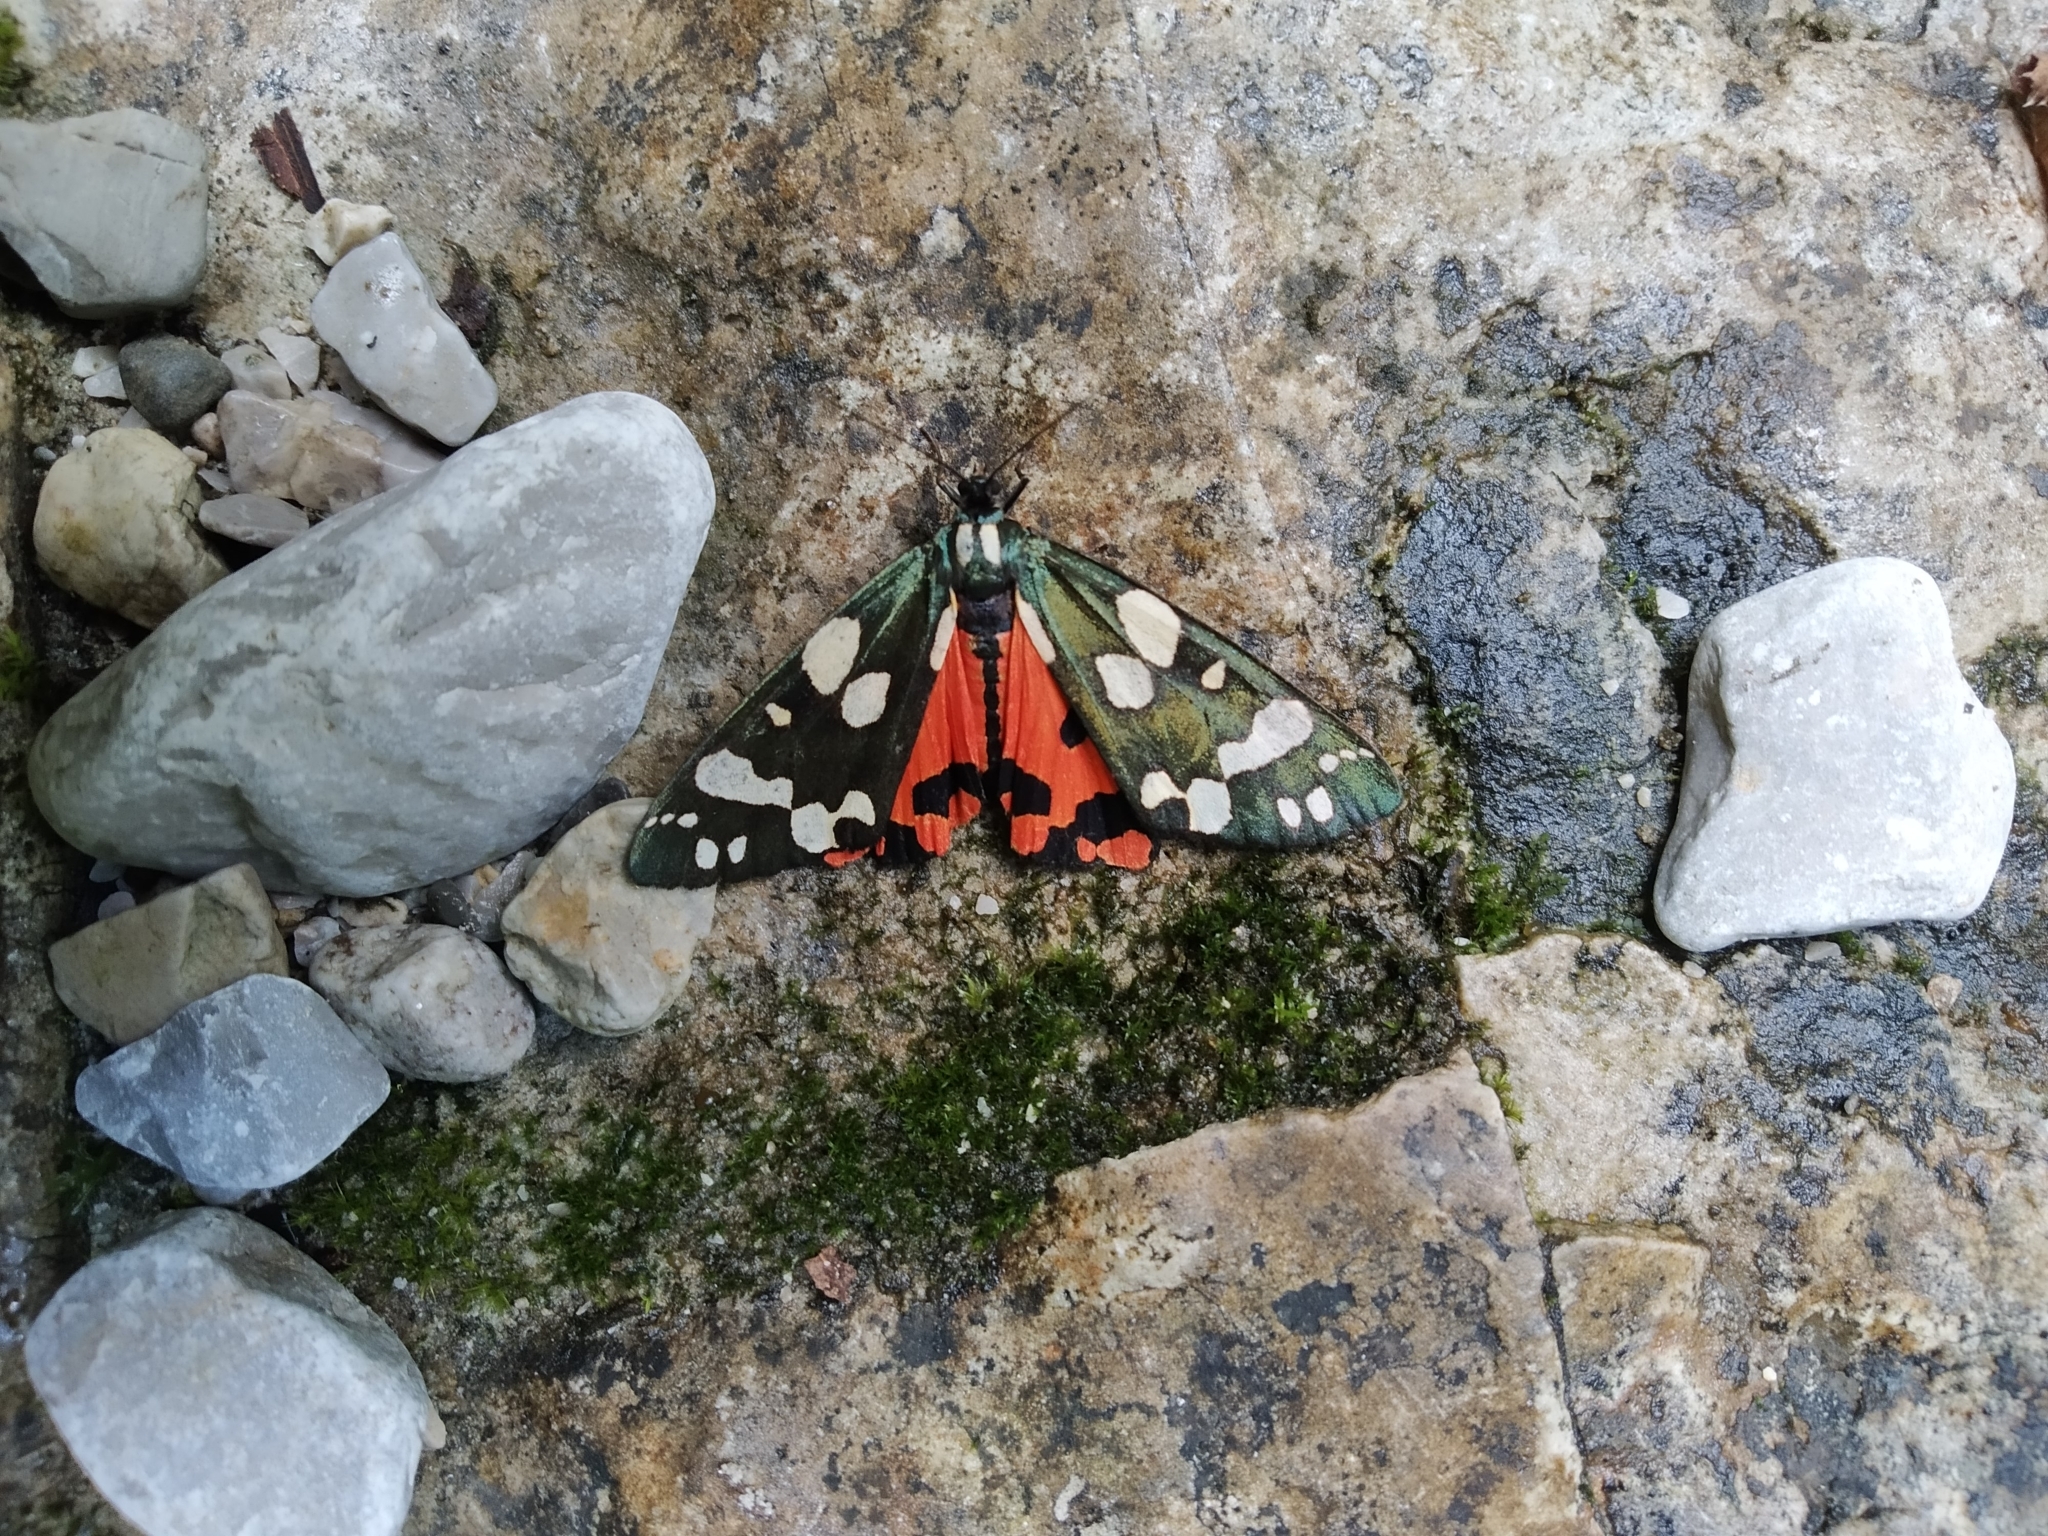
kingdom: Animalia
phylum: Arthropoda
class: Insecta
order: Lepidoptera
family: Erebidae
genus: Callimorpha
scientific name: Callimorpha dominula
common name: Scarlet tiger
